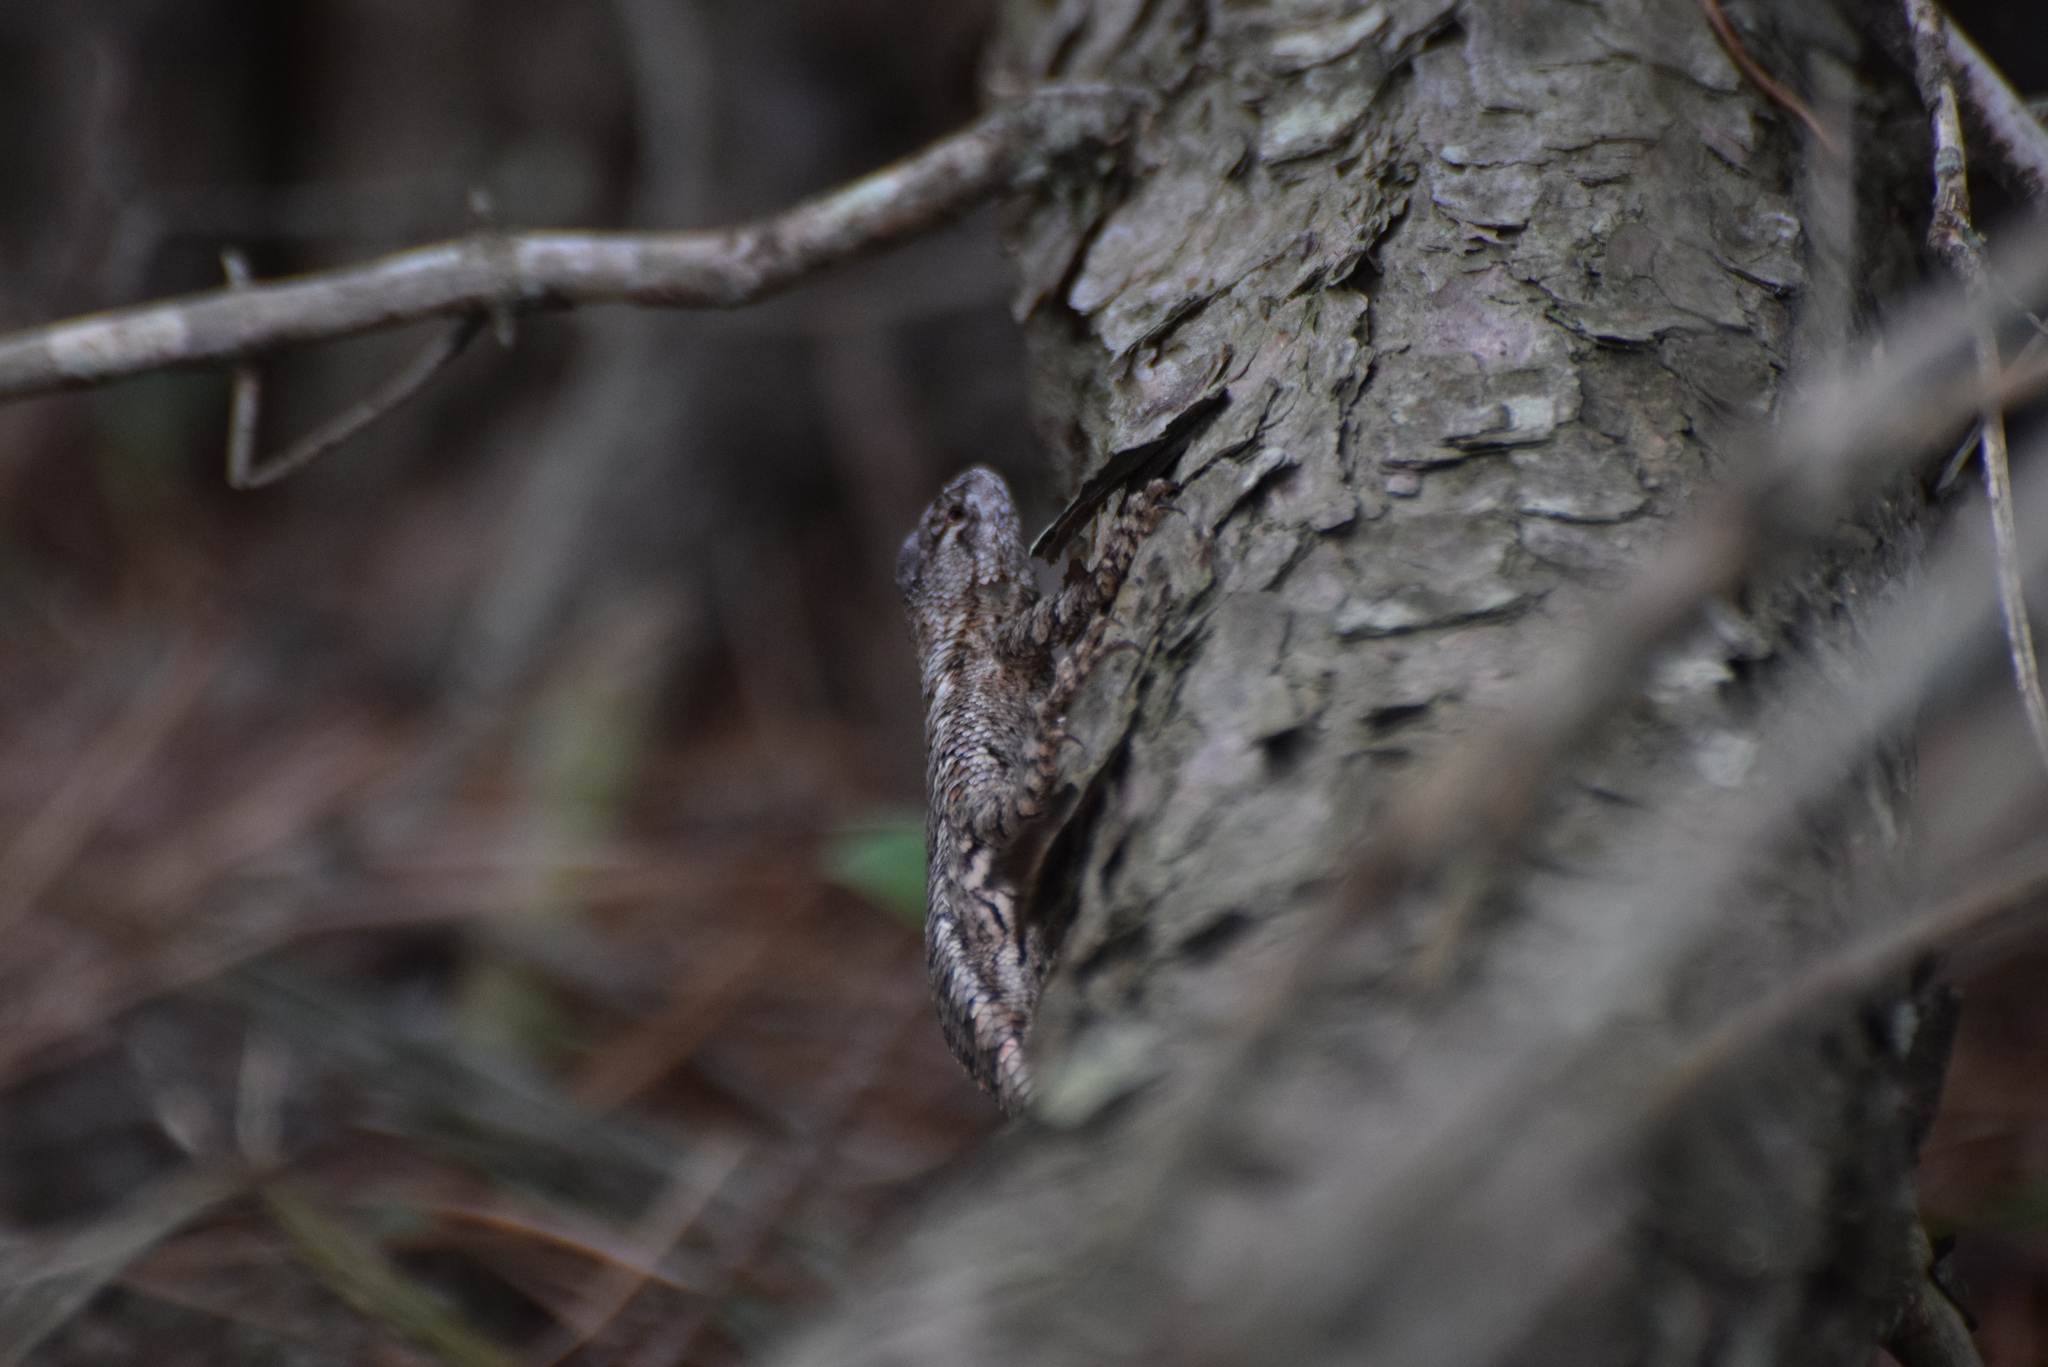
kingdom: Animalia
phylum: Chordata
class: Squamata
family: Phrynosomatidae
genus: Sceloporus
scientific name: Sceloporus undulatus
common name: Eastern fence lizard
